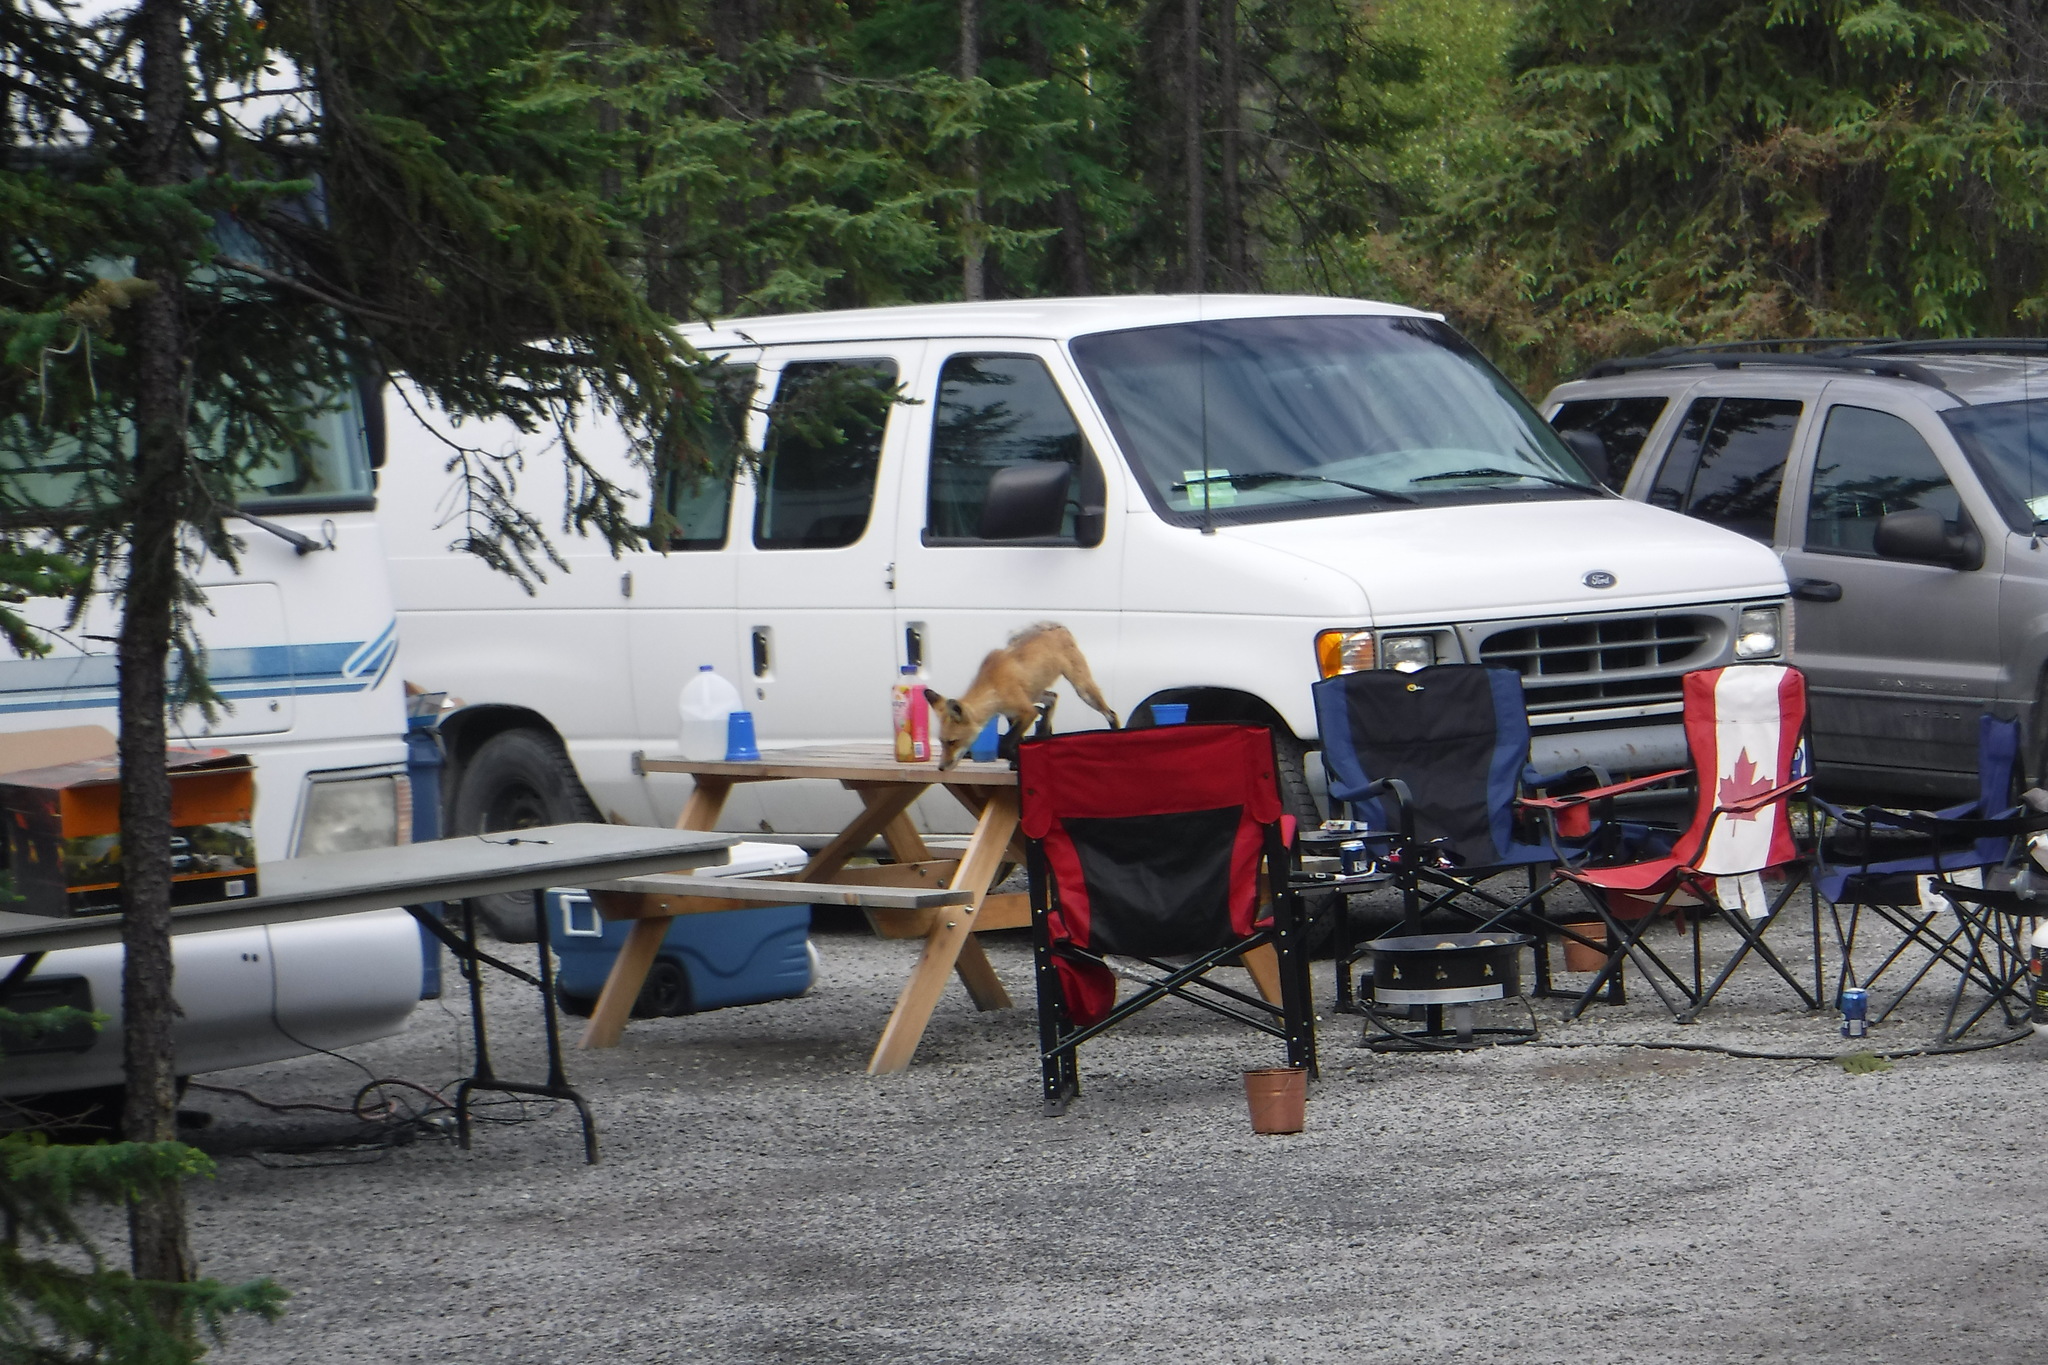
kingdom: Animalia
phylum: Chordata
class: Mammalia
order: Carnivora
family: Canidae
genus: Vulpes
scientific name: Vulpes vulpes
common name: Red fox
